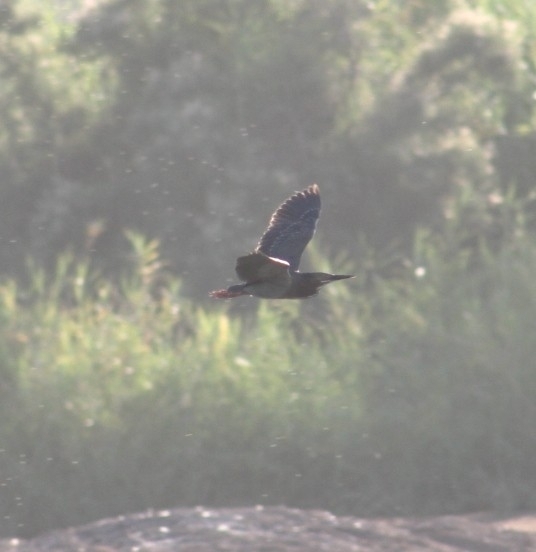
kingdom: Animalia
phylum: Chordata
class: Aves
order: Pelecaniformes
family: Ardeidae
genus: Butorides
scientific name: Butorides virescens
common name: Green heron
